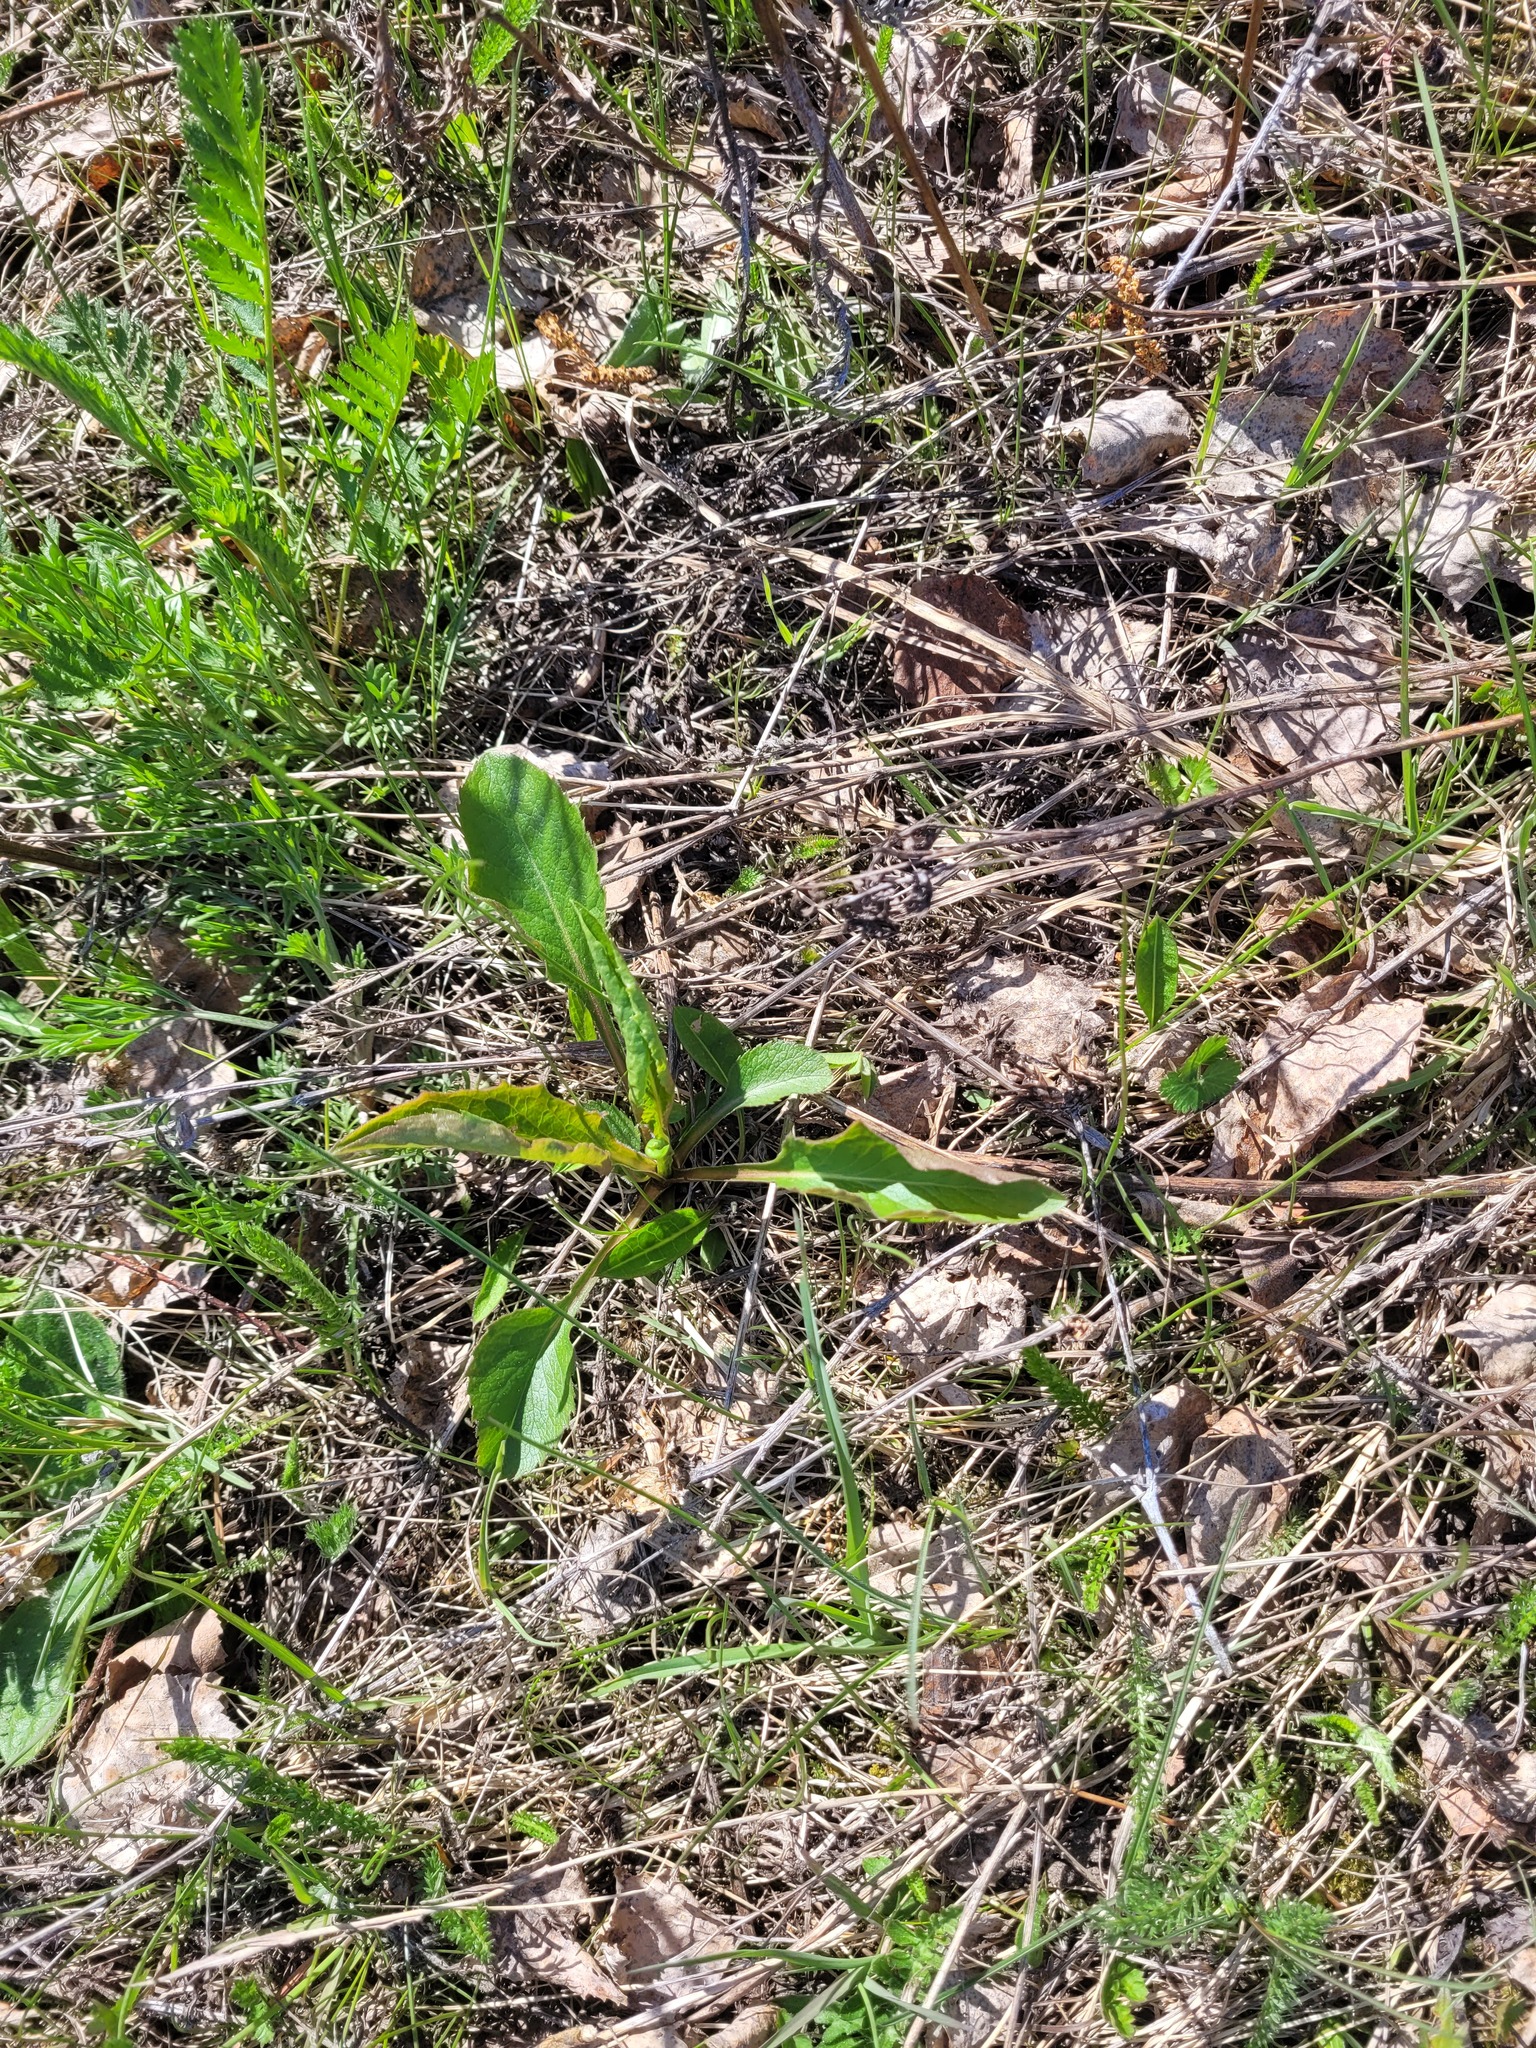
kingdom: Plantae
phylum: Tracheophyta
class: Magnoliopsida
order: Asterales
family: Asteraceae
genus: Solidago
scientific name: Solidago virgaurea
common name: Goldenrod
